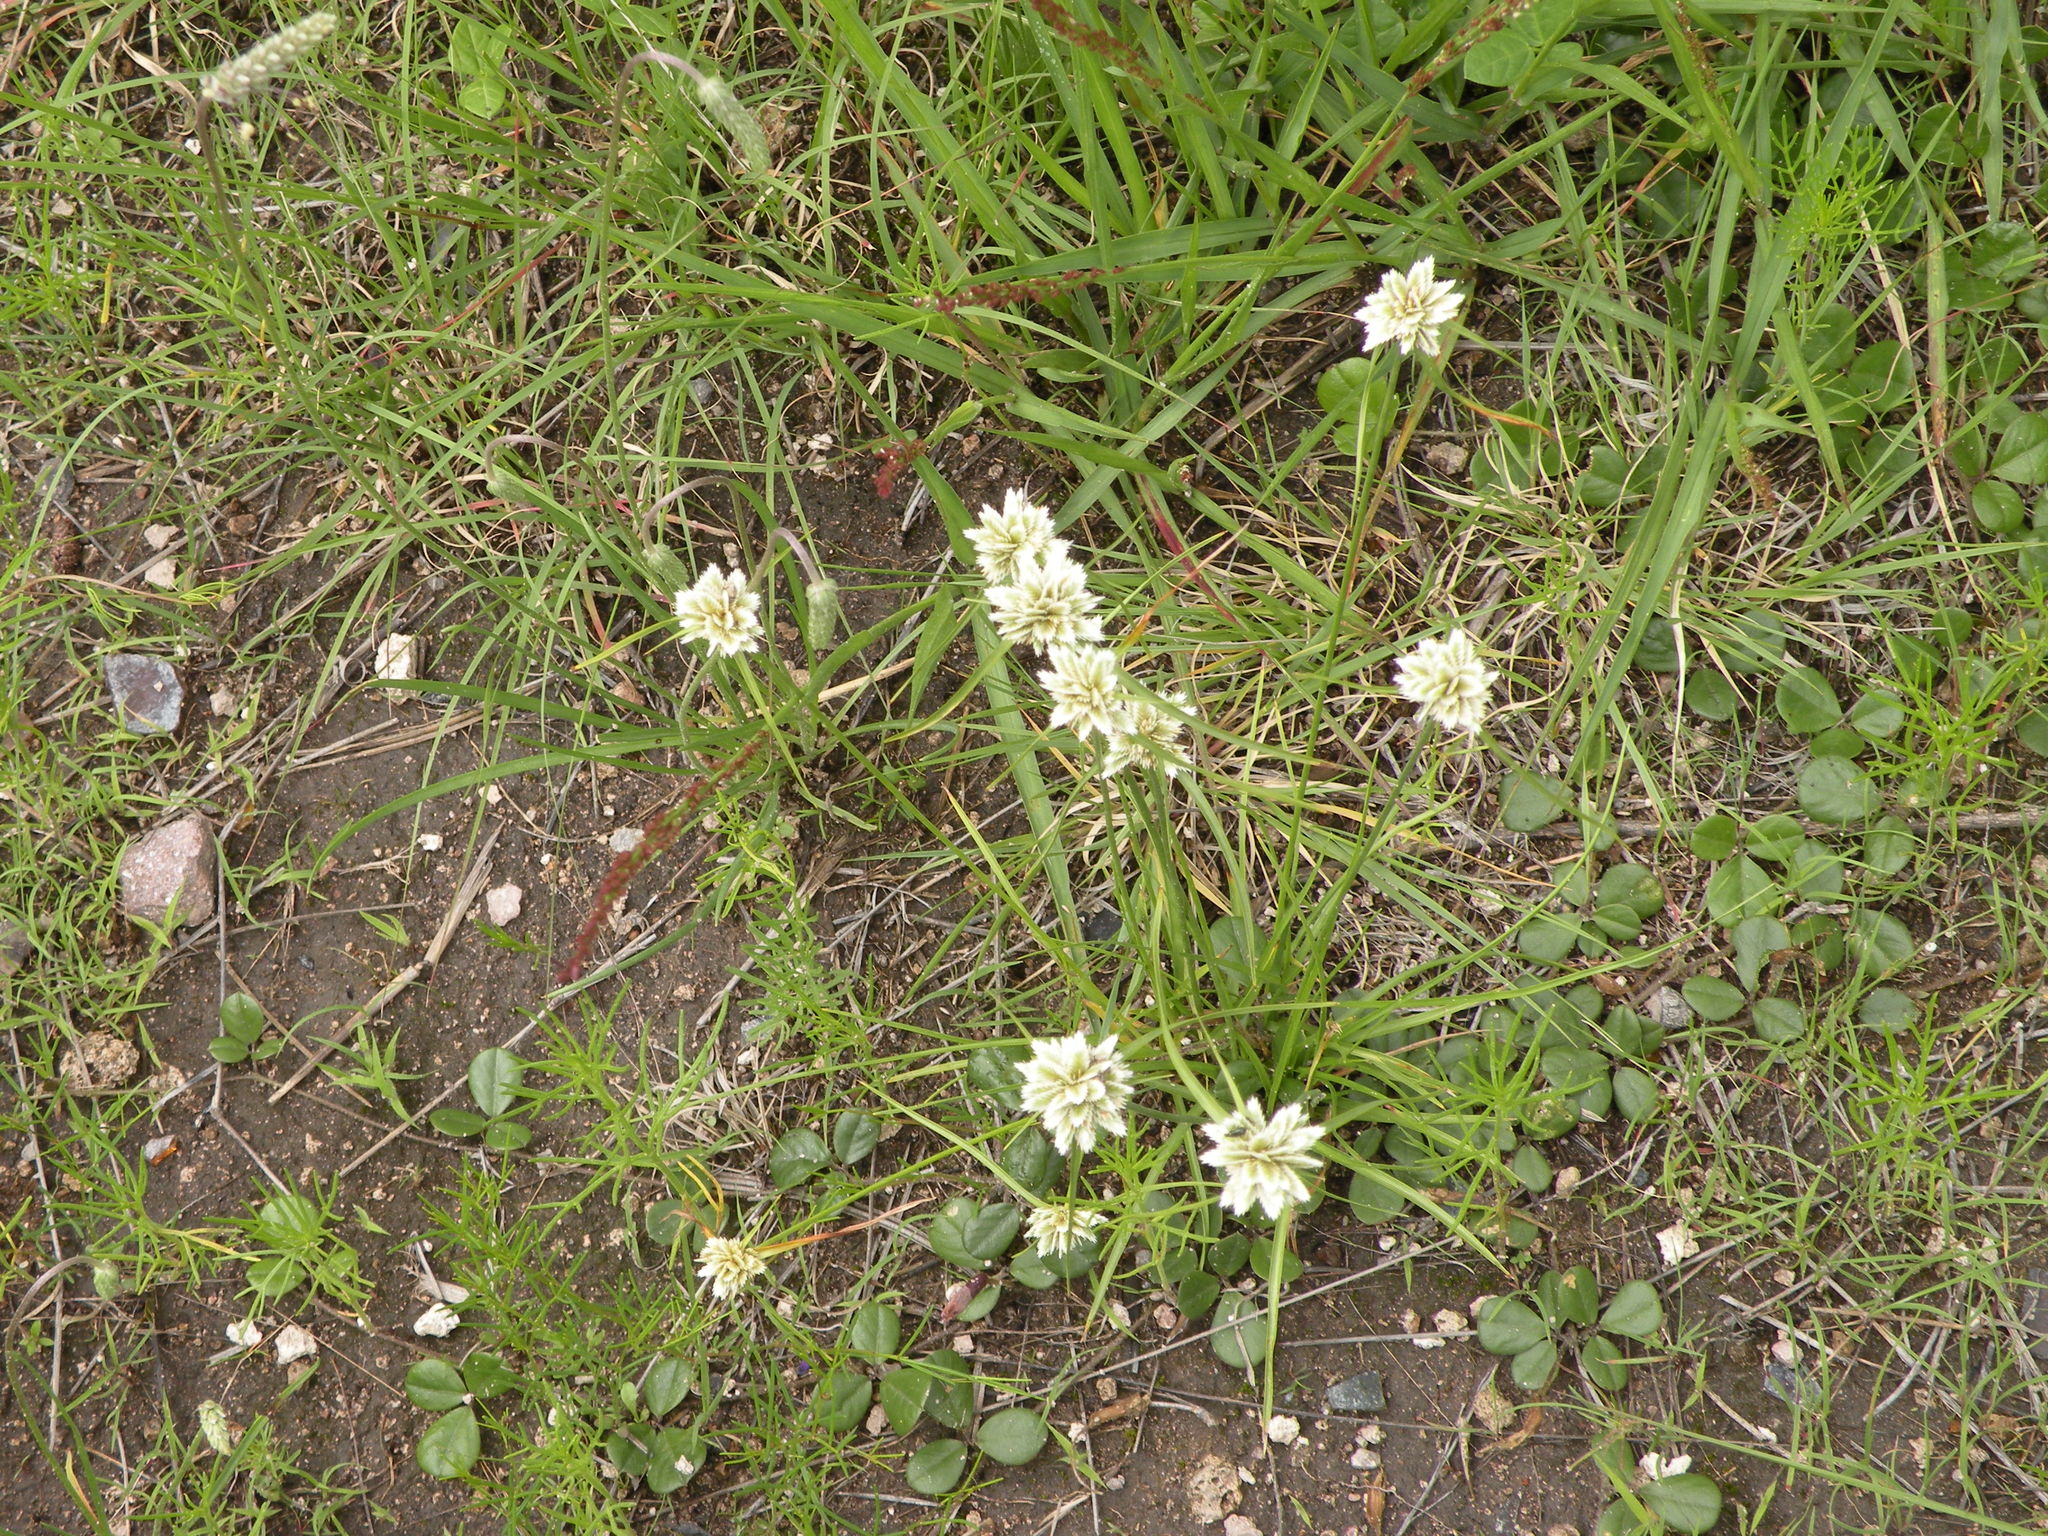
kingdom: Plantae
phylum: Tracheophyta
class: Liliopsida
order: Poales
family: Cyperaceae
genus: Cyperus
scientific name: Cyperus seslerioides
